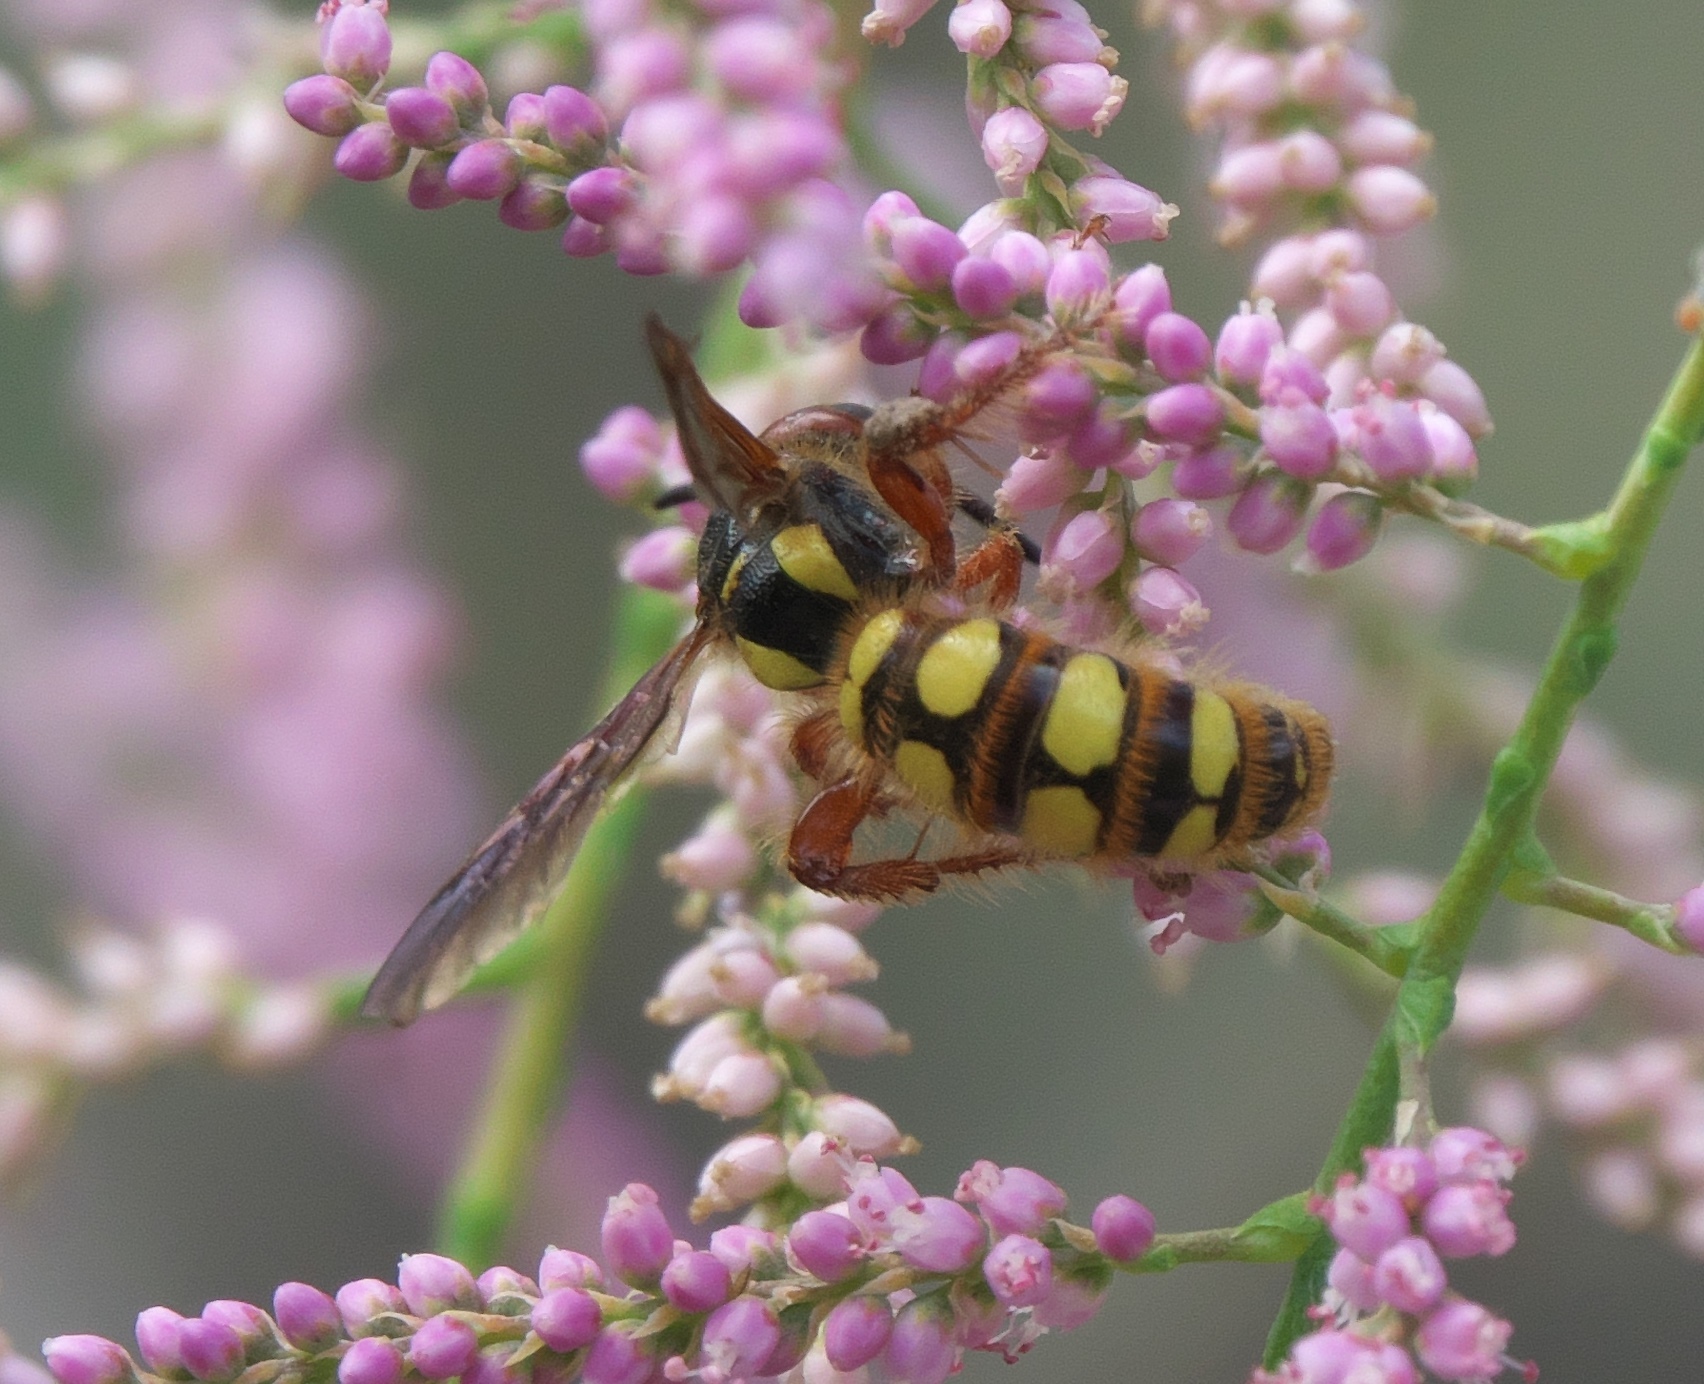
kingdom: Animalia
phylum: Arthropoda
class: Insecta
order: Hymenoptera
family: Scoliidae
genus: Colpa
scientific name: Colpa octomaculata
